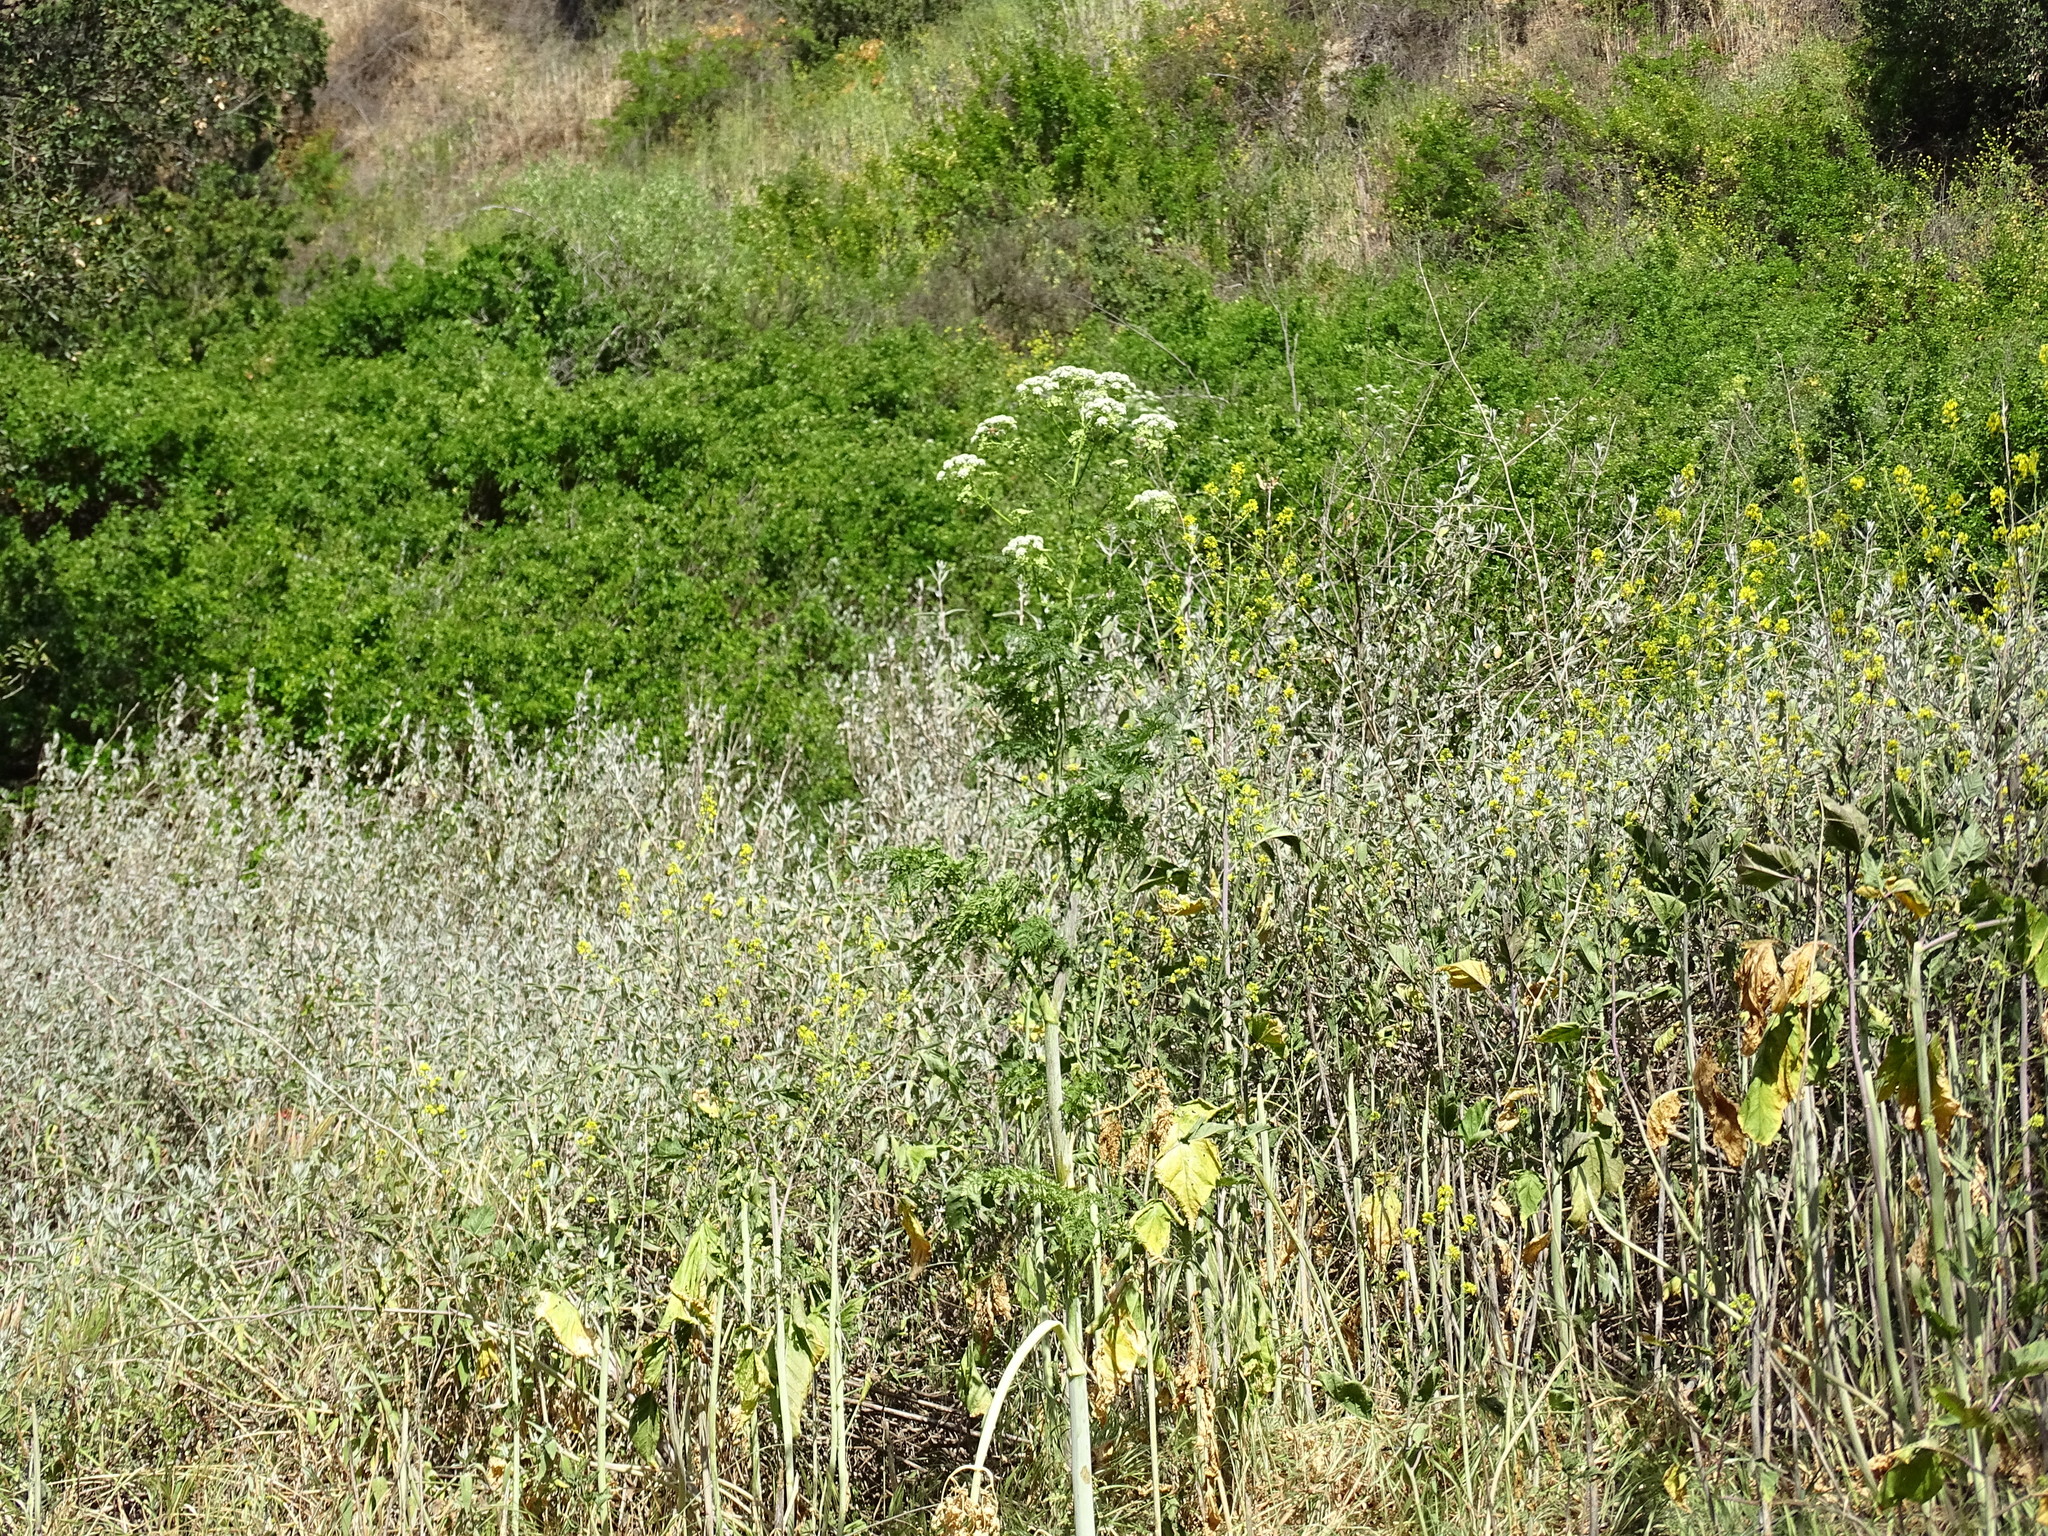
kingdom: Plantae
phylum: Tracheophyta
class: Magnoliopsida
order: Apiales
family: Apiaceae
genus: Conium
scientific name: Conium maculatum
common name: Hemlock
